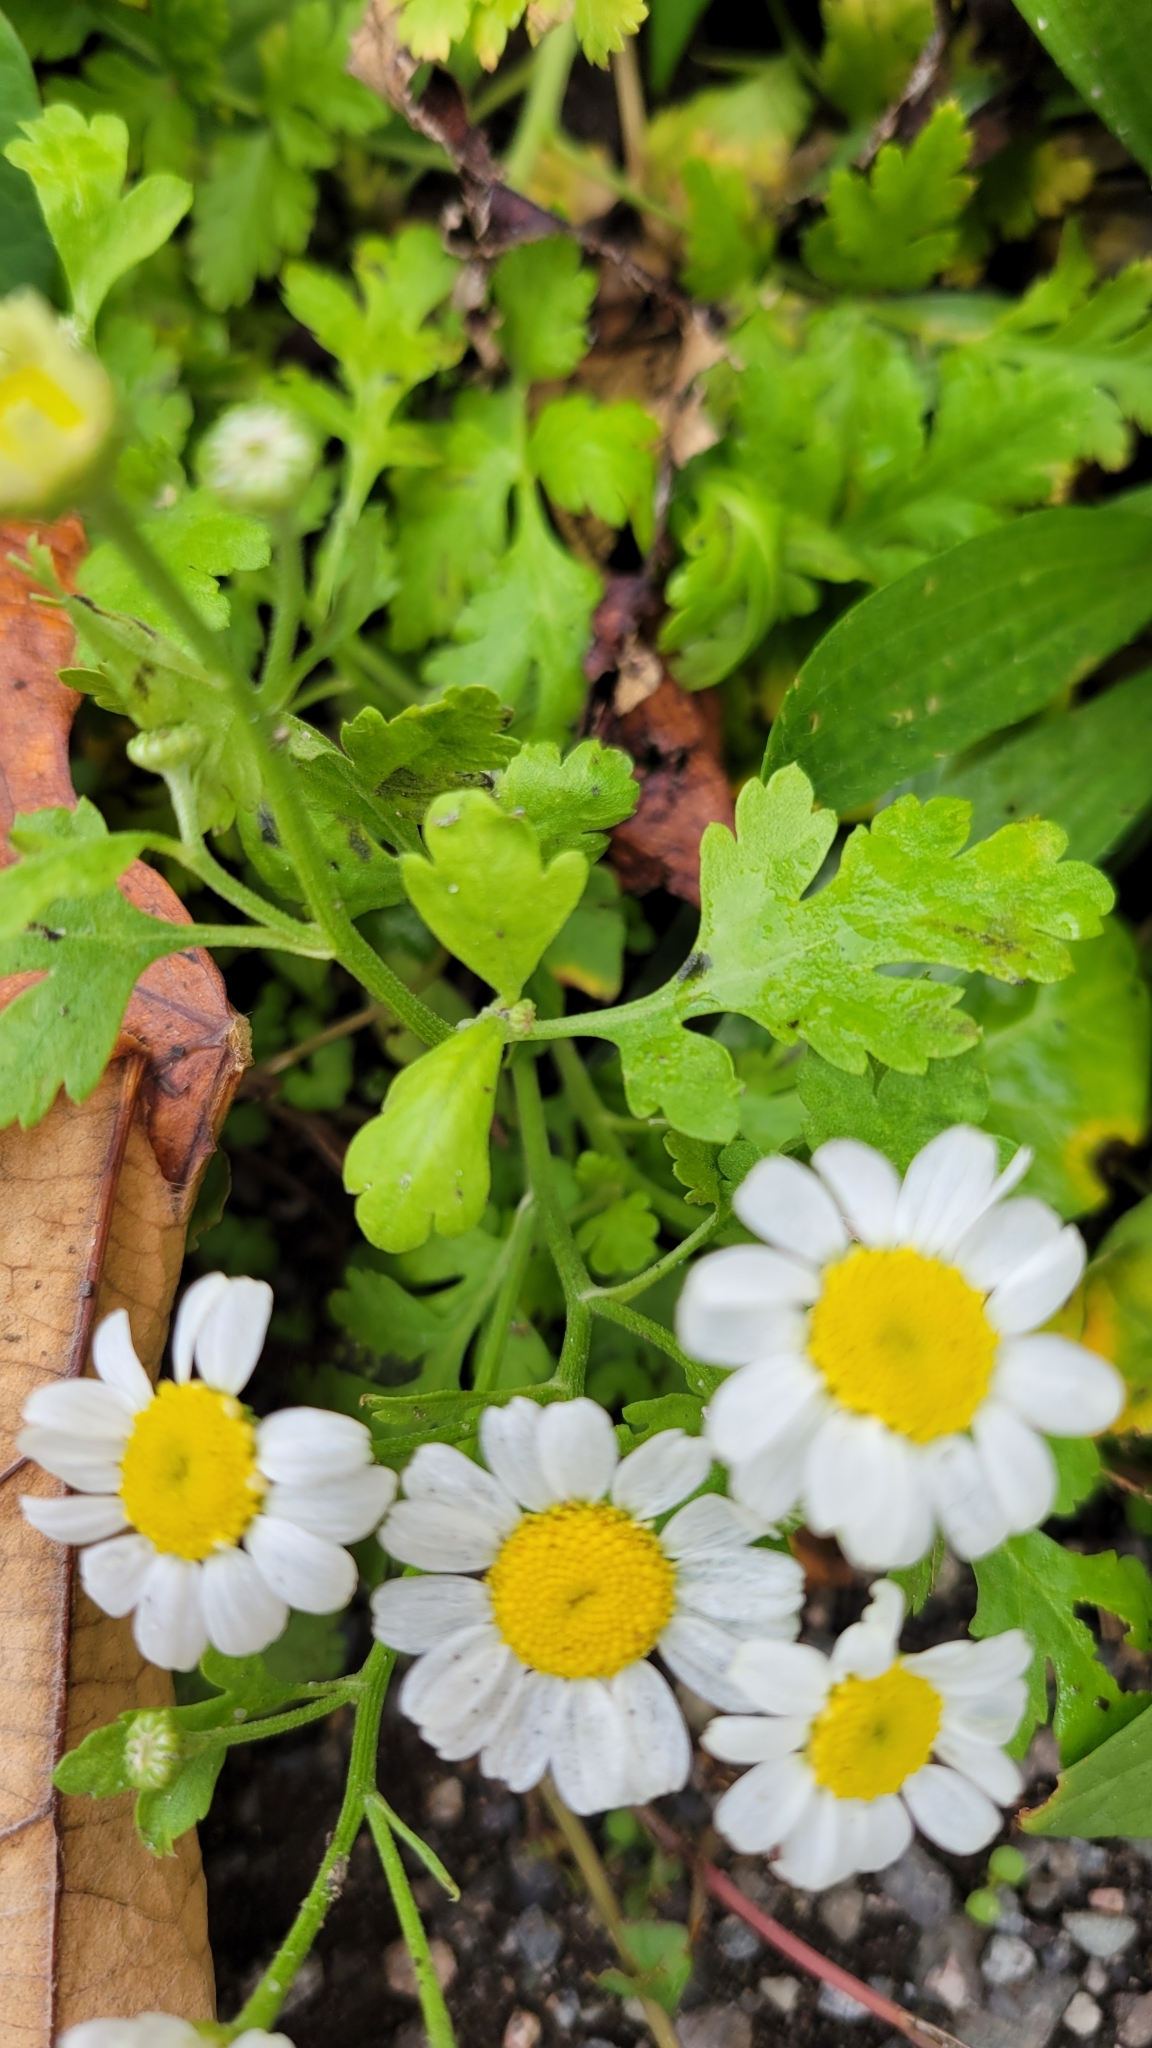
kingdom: Plantae
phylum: Tracheophyta
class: Magnoliopsida
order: Asterales
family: Asteraceae
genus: Tanacetum
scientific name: Tanacetum parthenium
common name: Feverfew
